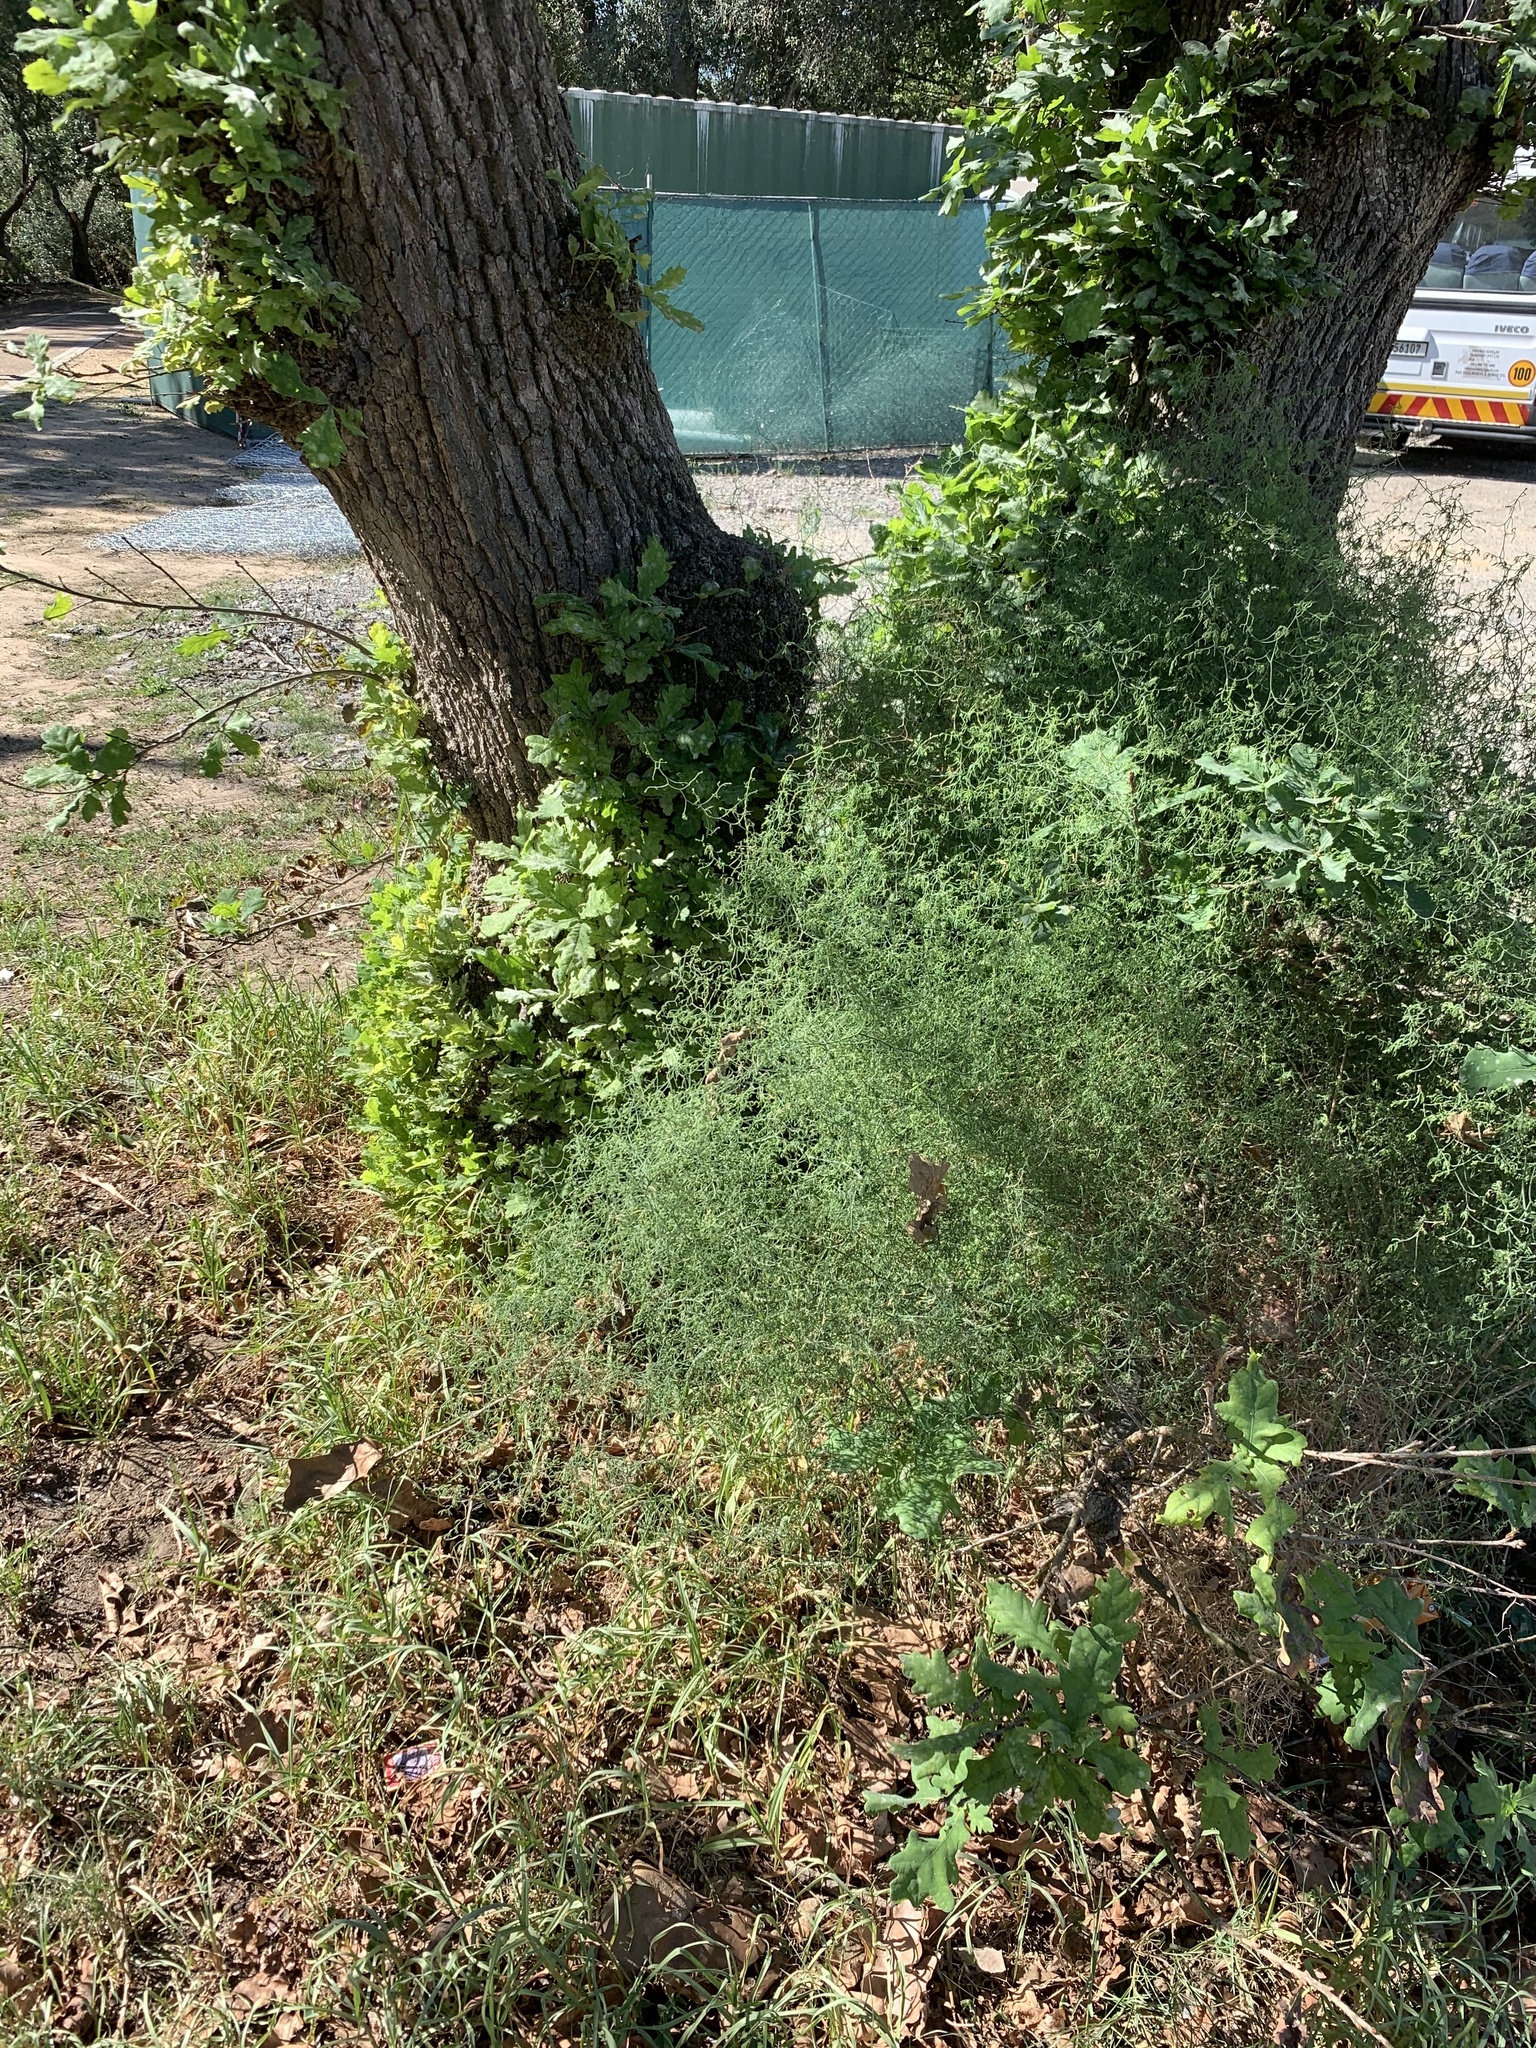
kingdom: Plantae
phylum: Tracheophyta
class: Liliopsida
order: Asparagales
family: Asparagaceae
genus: Asparagus
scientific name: Asparagus declinatus
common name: Bridal-creeper
